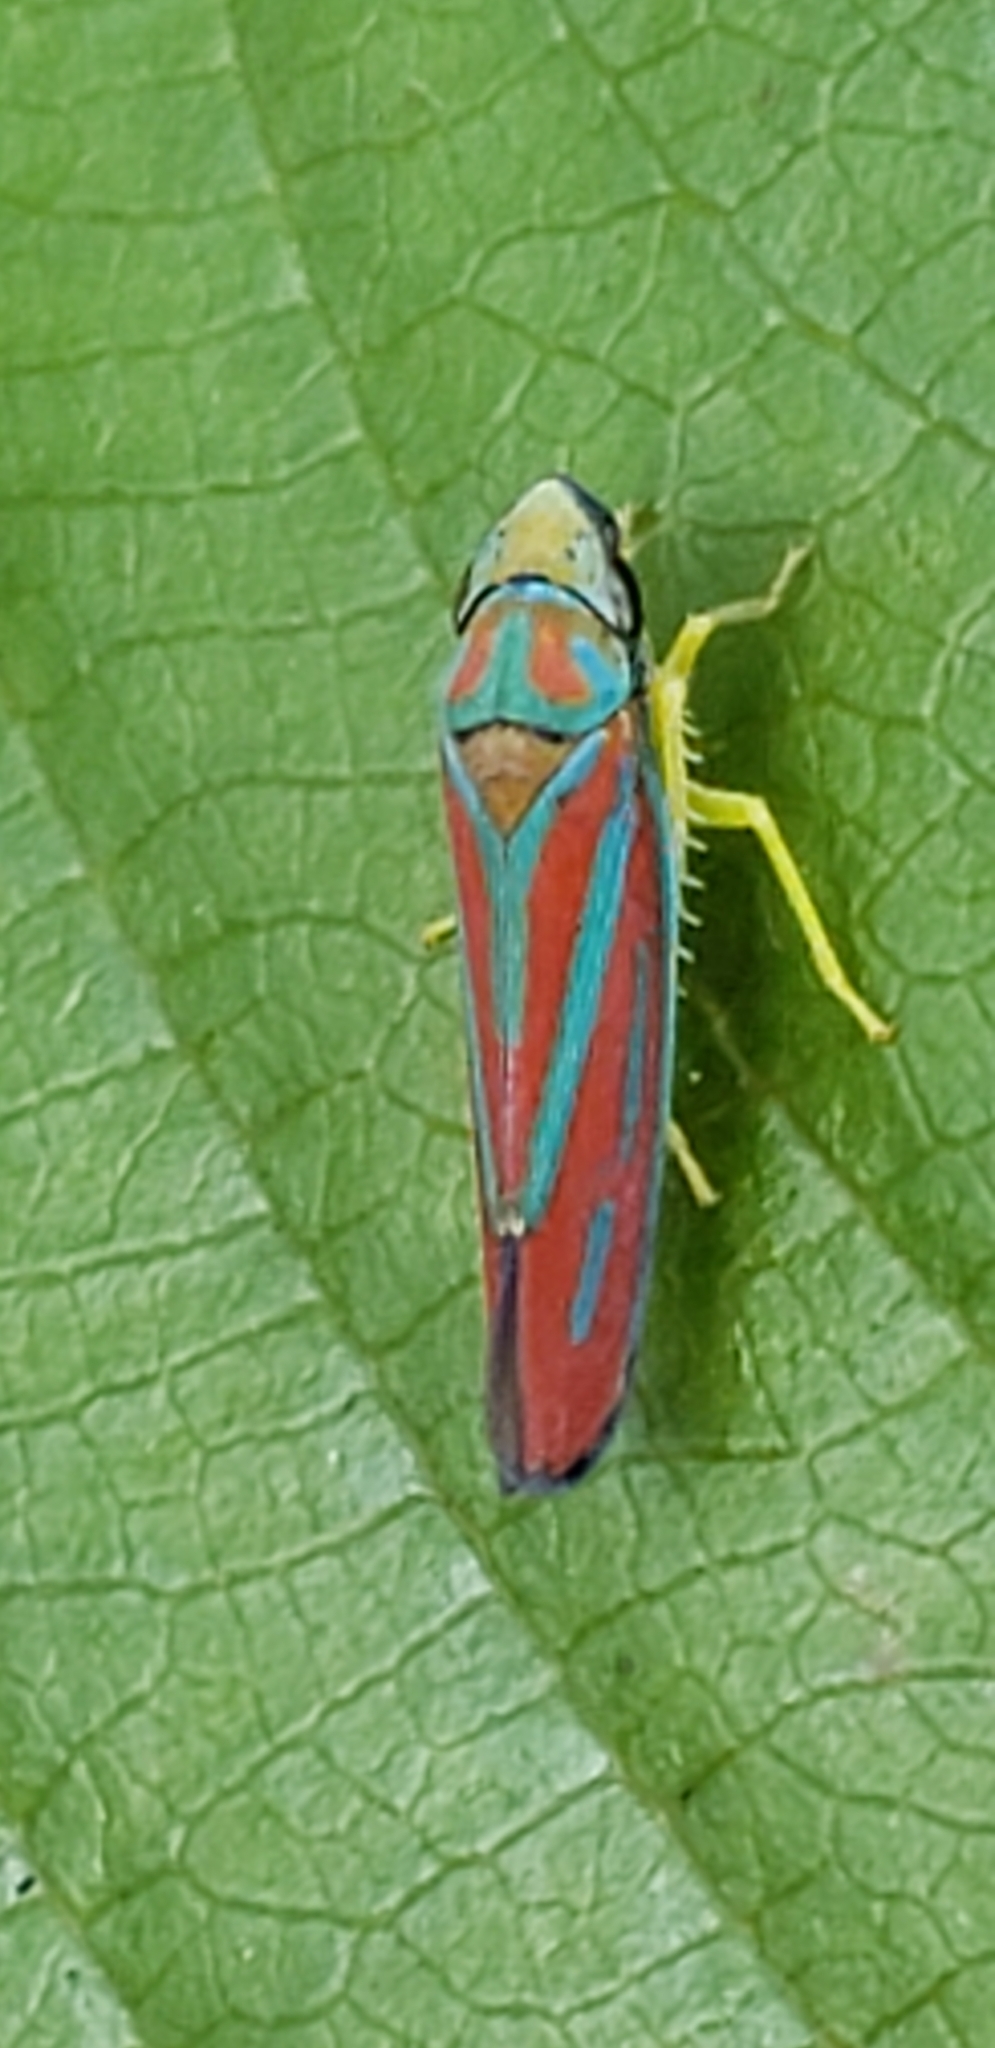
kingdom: Animalia
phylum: Arthropoda
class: Insecta
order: Hemiptera
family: Cicadellidae
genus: Graphocephala
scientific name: Graphocephala coccinea
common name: Candy-striped leafhopper
